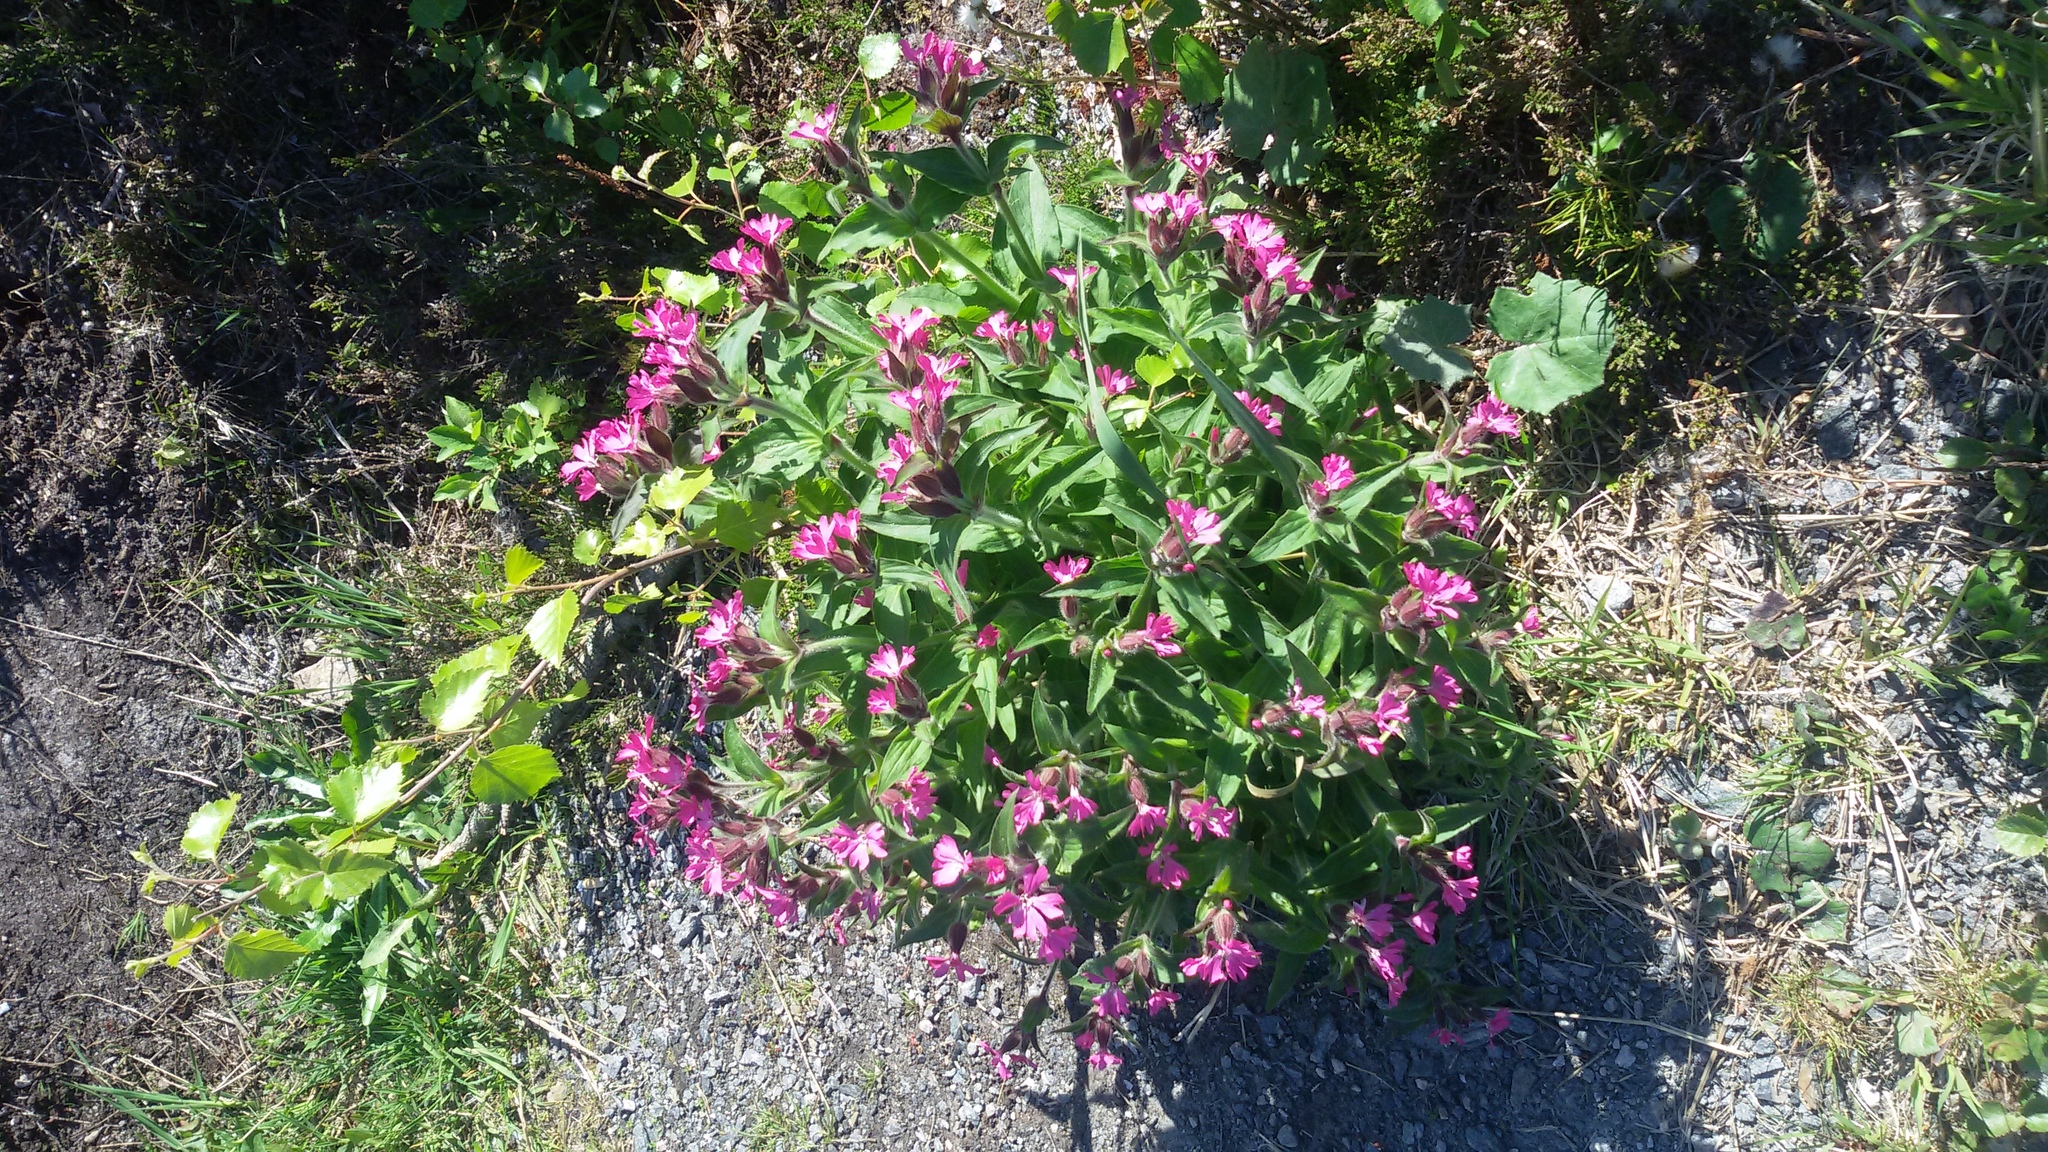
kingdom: Plantae
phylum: Tracheophyta
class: Magnoliopsida
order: Caryophyllales
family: Caryophyllaceae
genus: Silene
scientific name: Silene dioica
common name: Red campion
